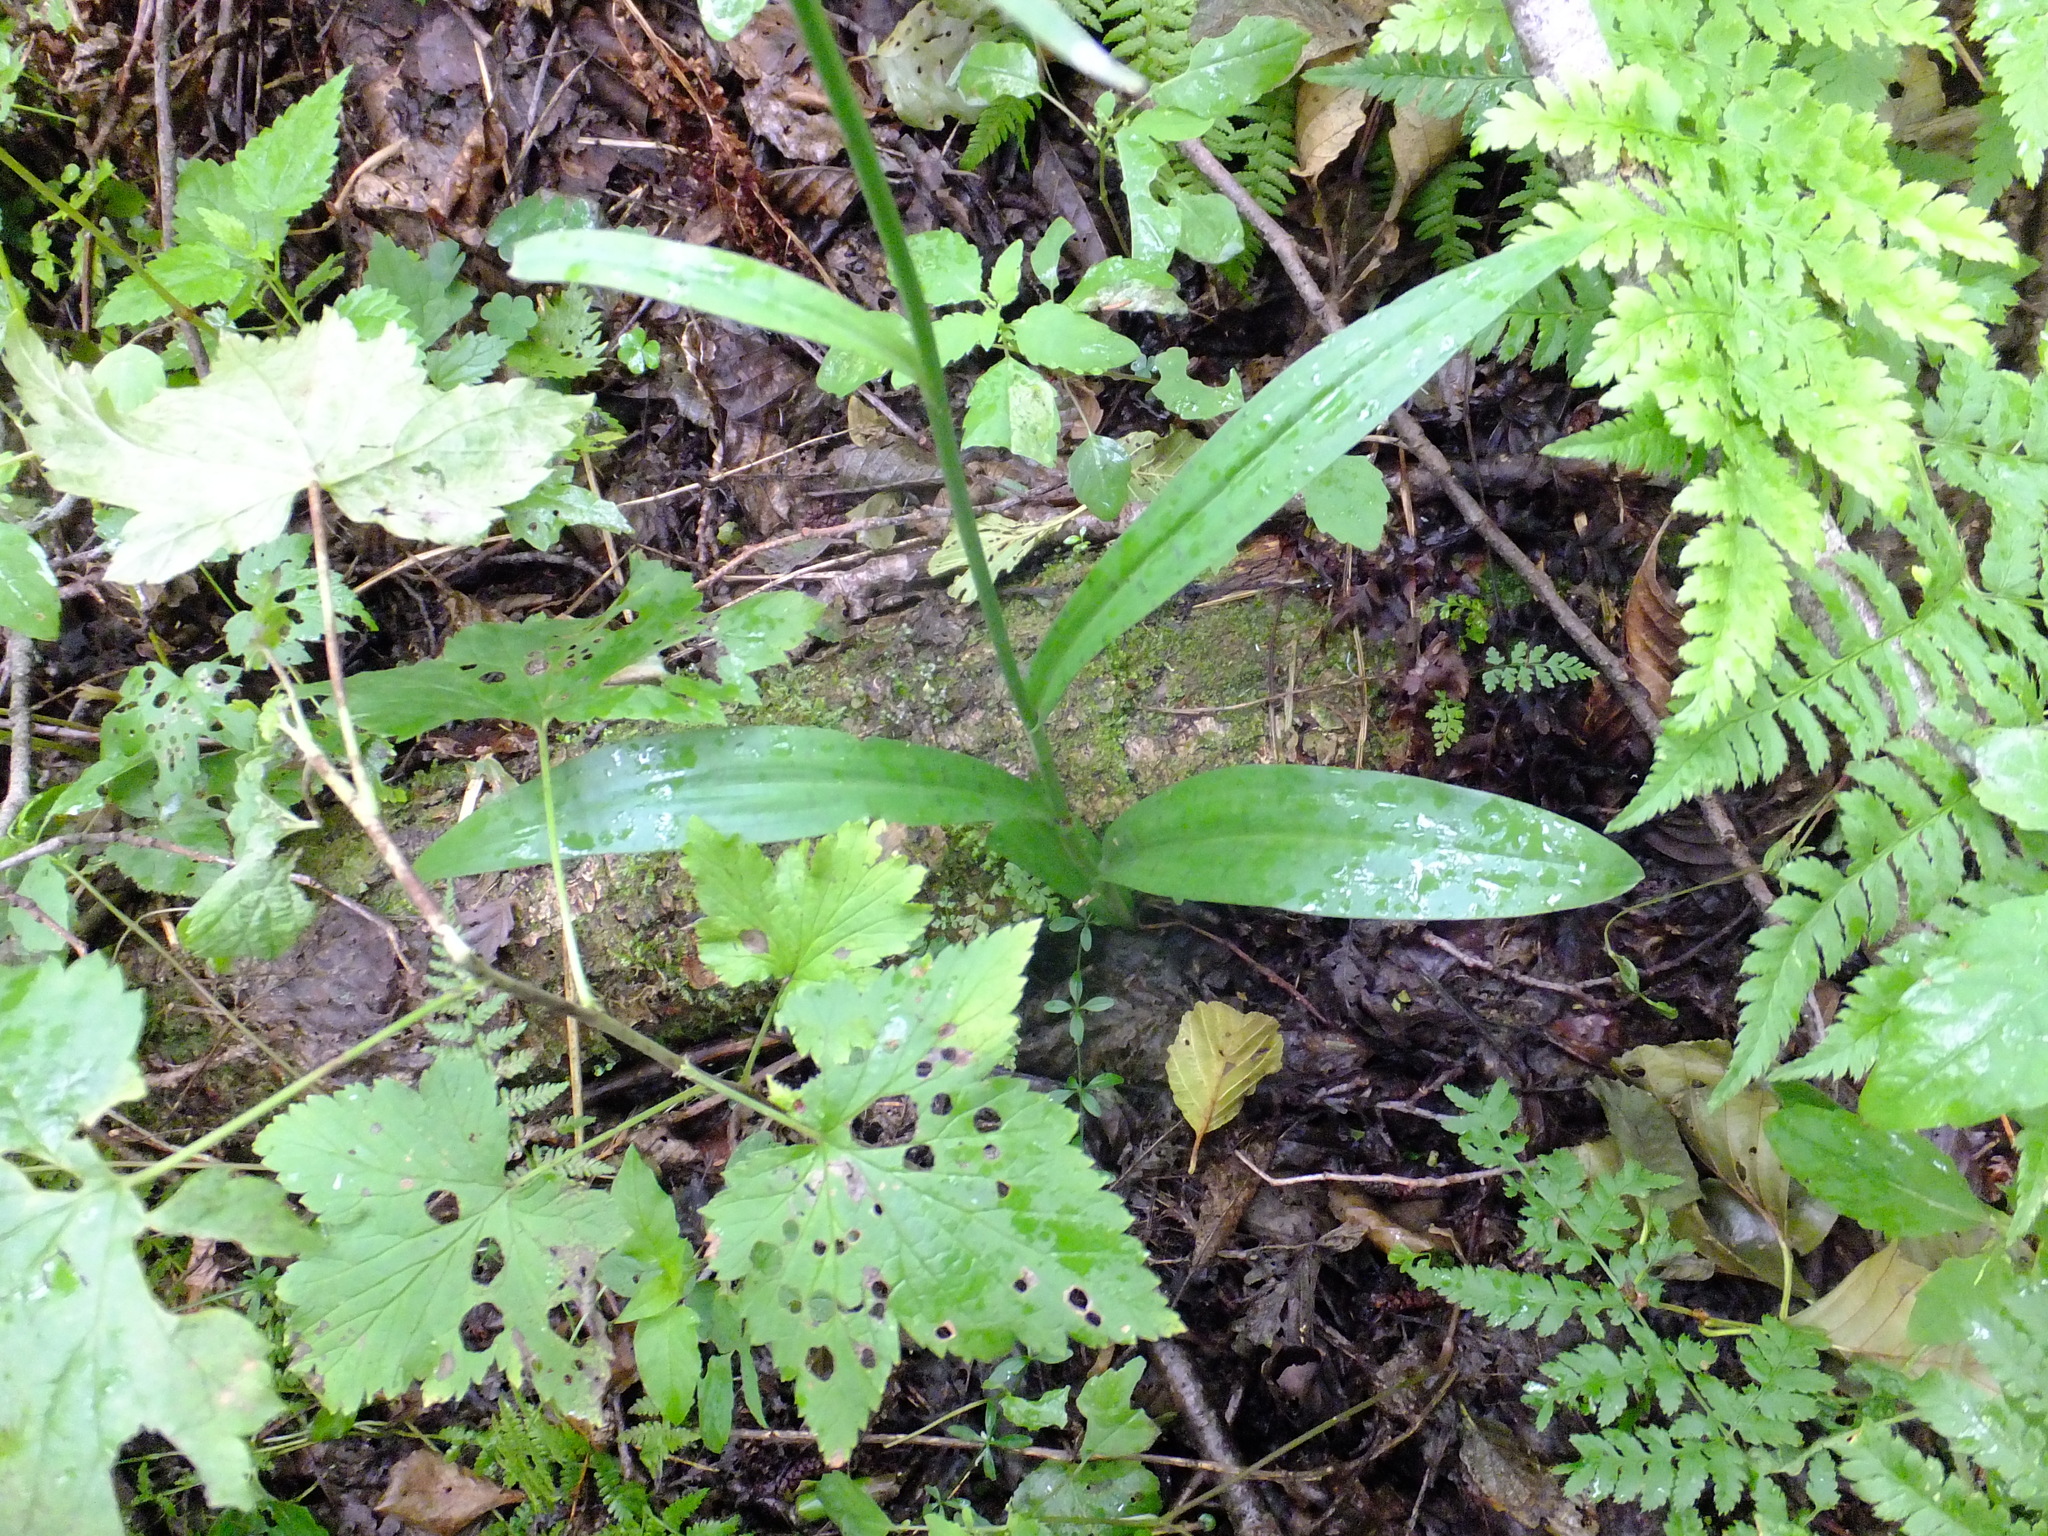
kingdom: Plantae
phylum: Tracheophyta
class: Liliopsida
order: Asparagales
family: Orchidaceae
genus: Dactylorhiza
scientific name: Dactylorhiza maculata
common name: Heath spotted-orchid
